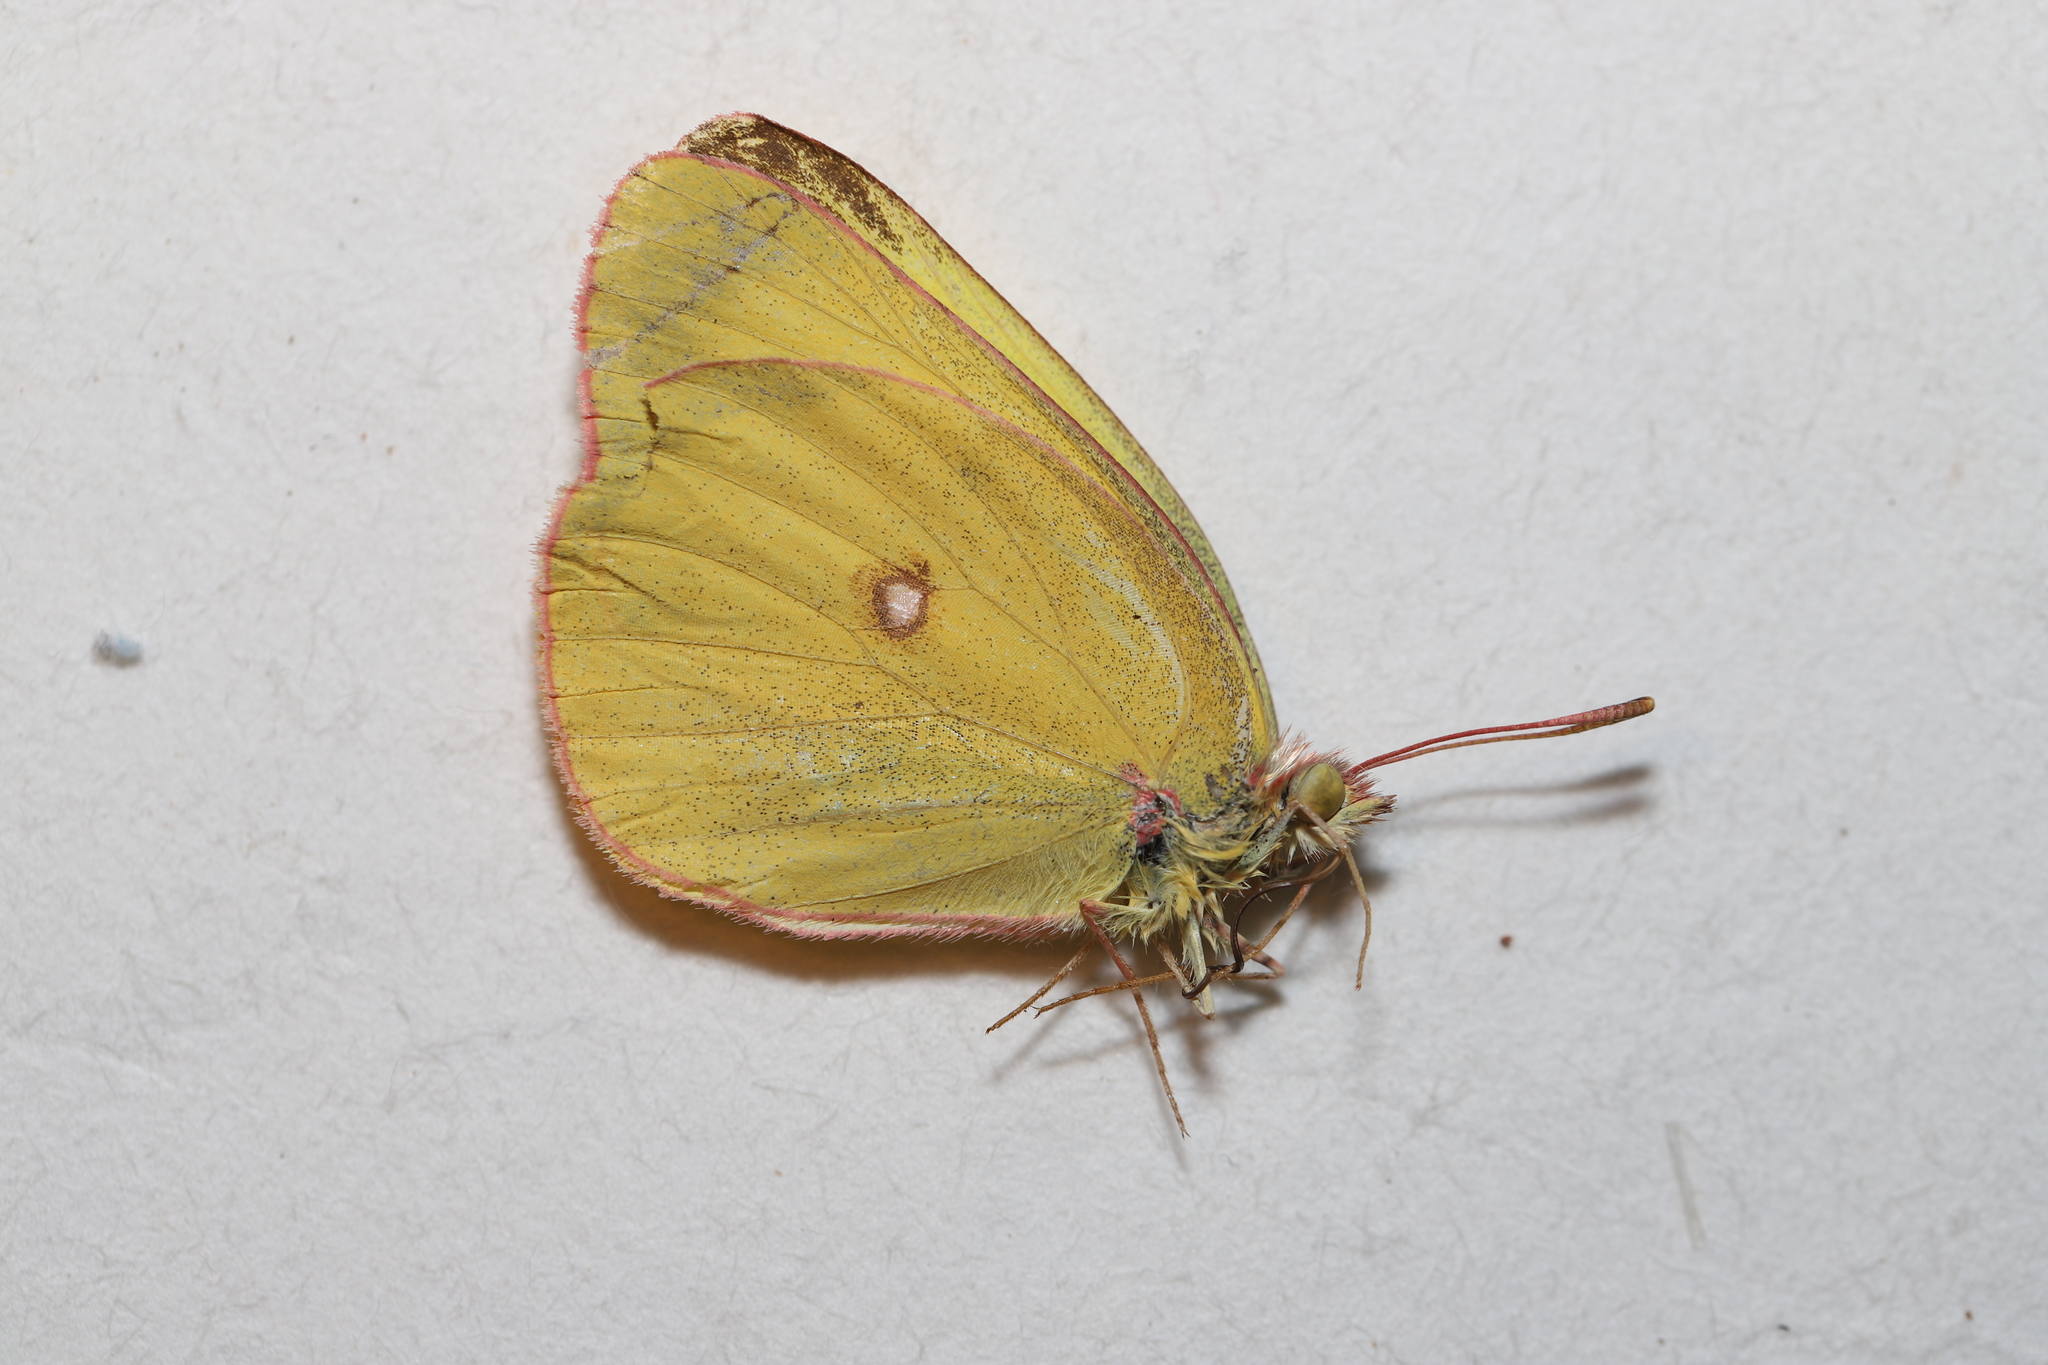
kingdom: Animalia
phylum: Arthropoda
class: Insecta
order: Lepidoptera
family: Pieridae
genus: Colias
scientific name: Colias interior
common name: Pink-edged sulphur
